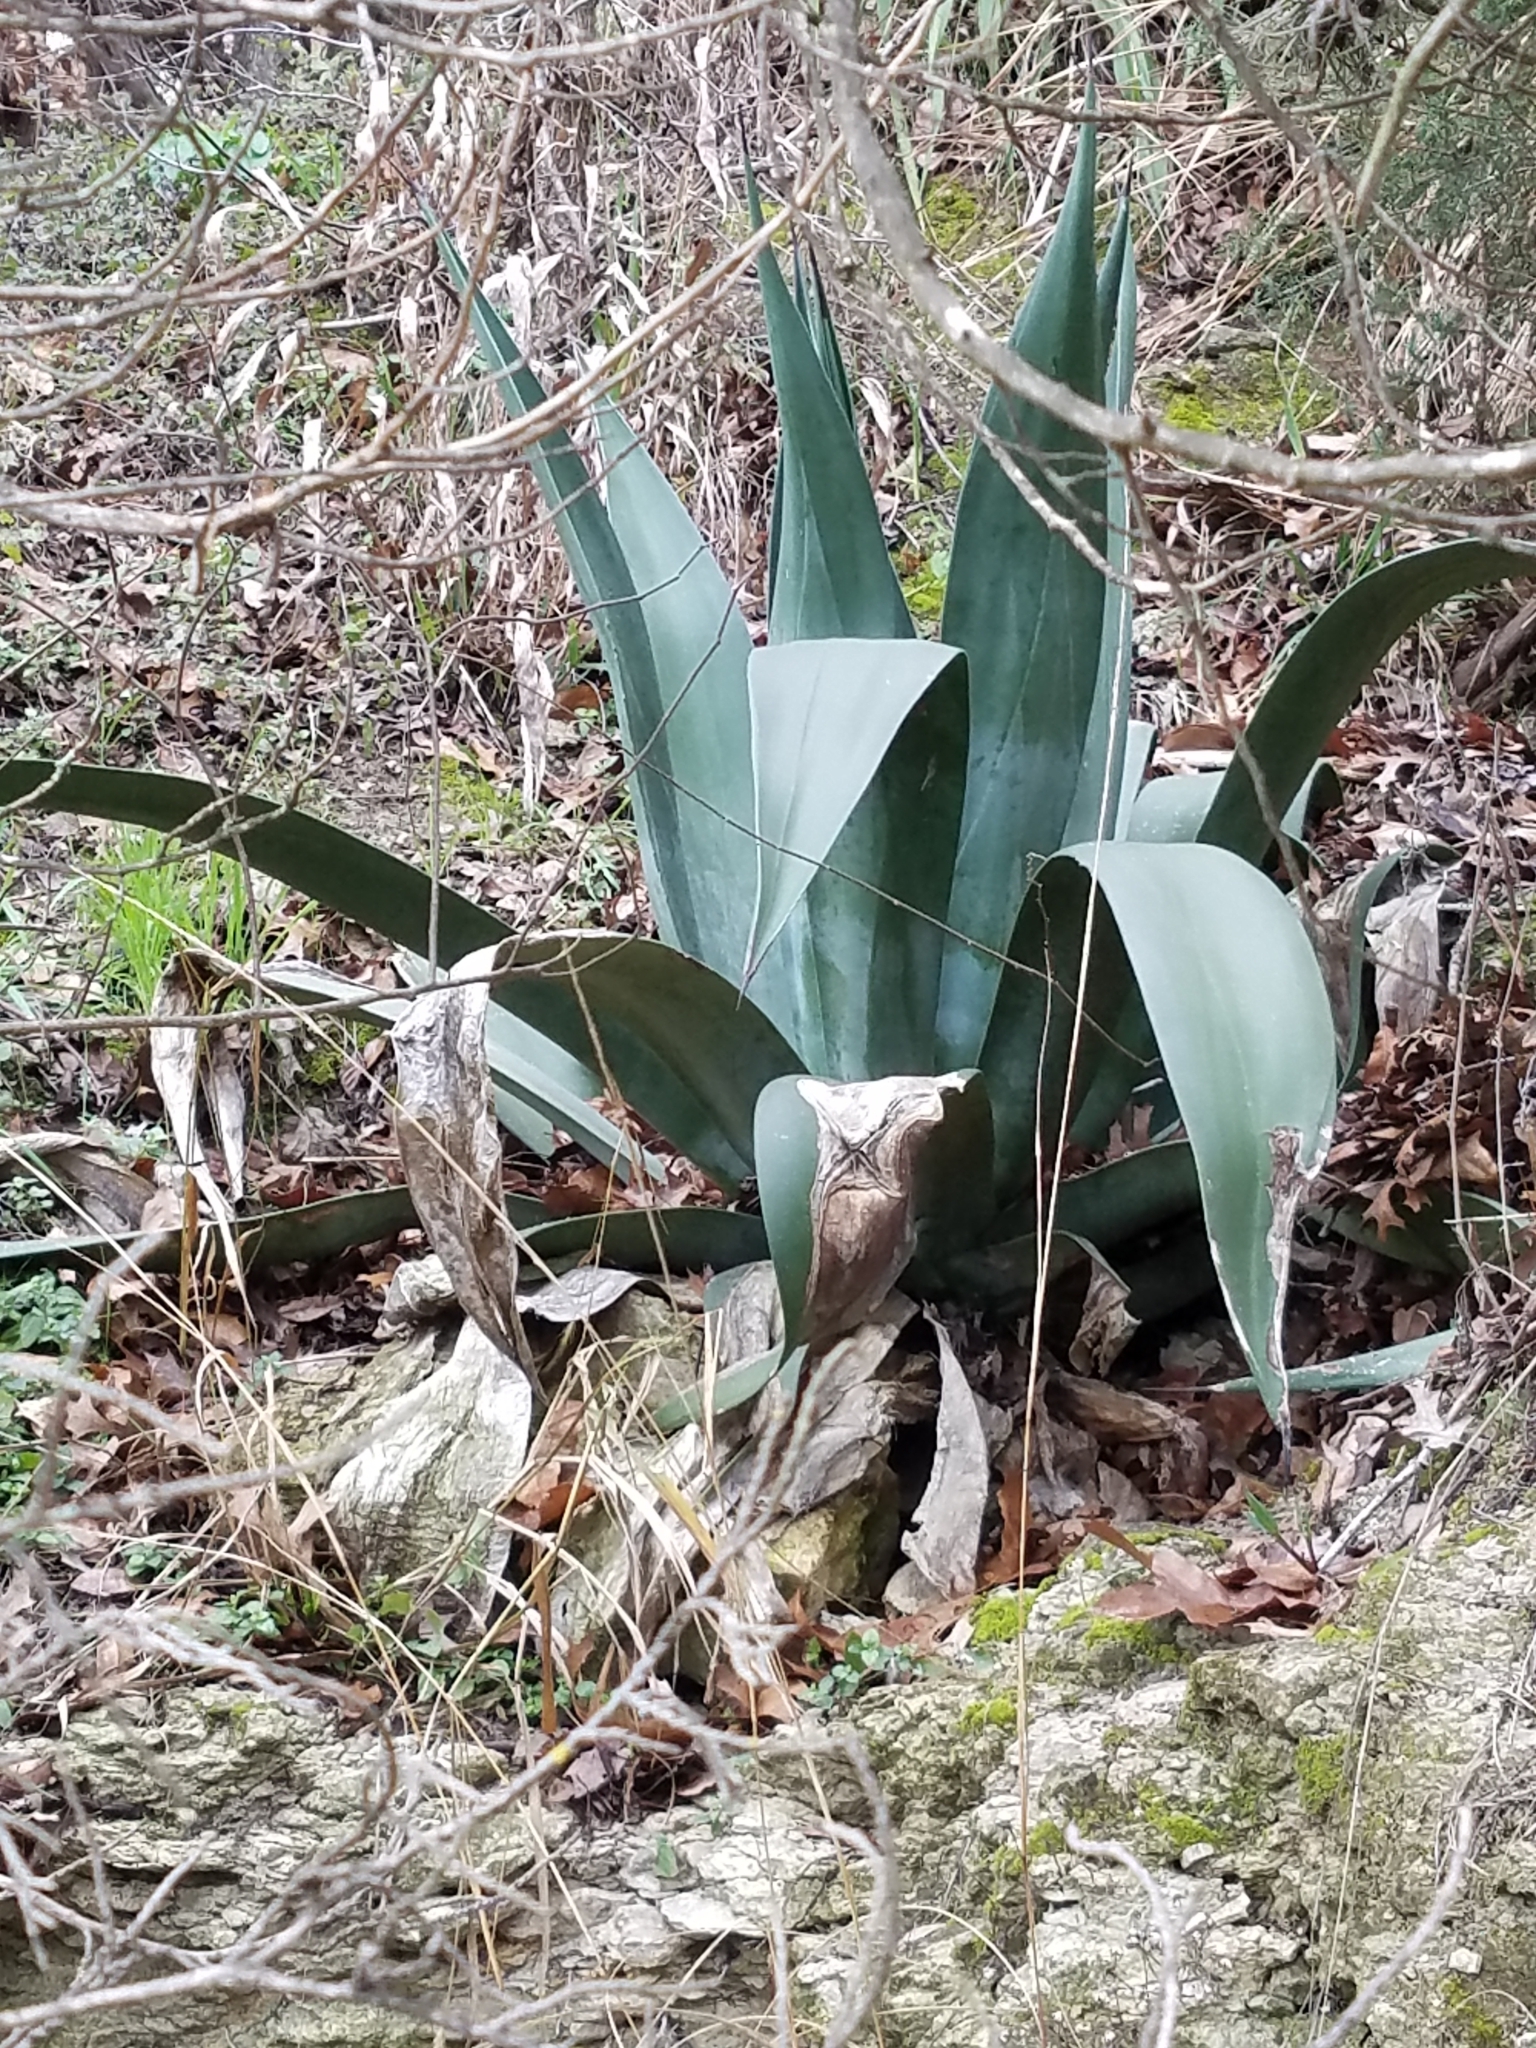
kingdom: Plantae
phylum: Tracheophyta
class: Liliopsida
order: Asparagales
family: Asparagaceae
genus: Agave
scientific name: Agave americana
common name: Centuryplant
